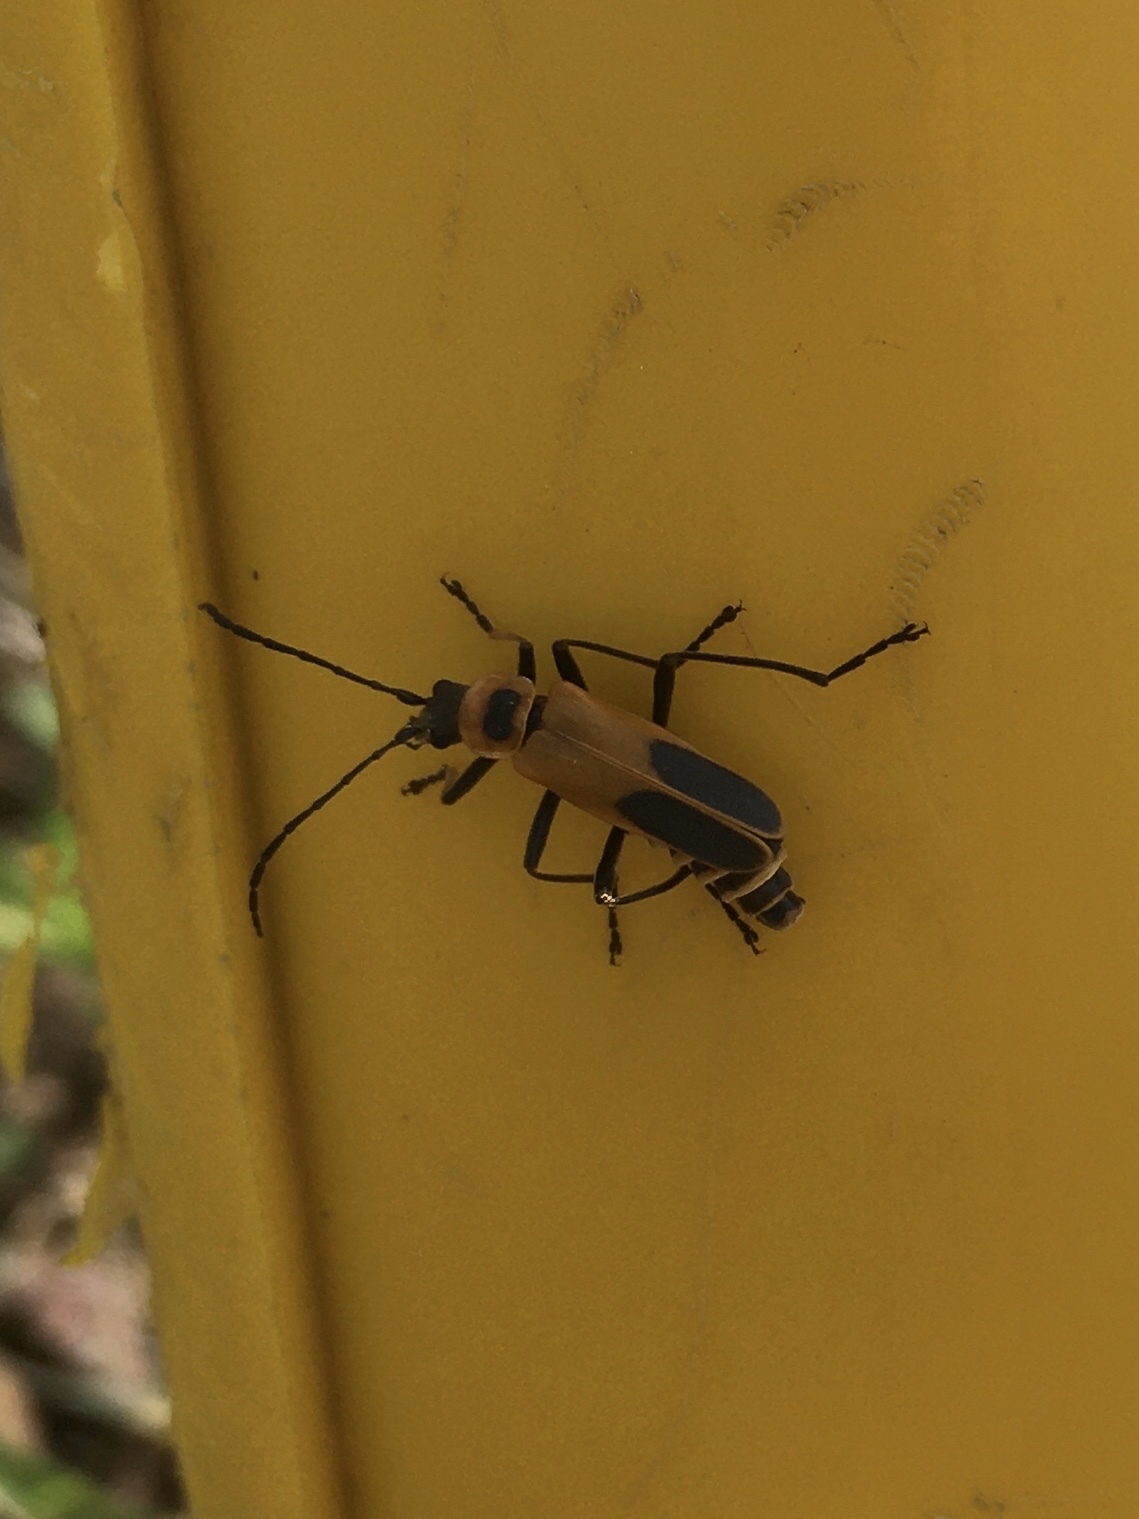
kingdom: Animalia
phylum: Arthropoda
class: Insecta
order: Coleoptera
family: Cantharidae
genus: Chauliognathus
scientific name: Chauliognathus pensylvanicus
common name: Goldenrod soldier beetle
